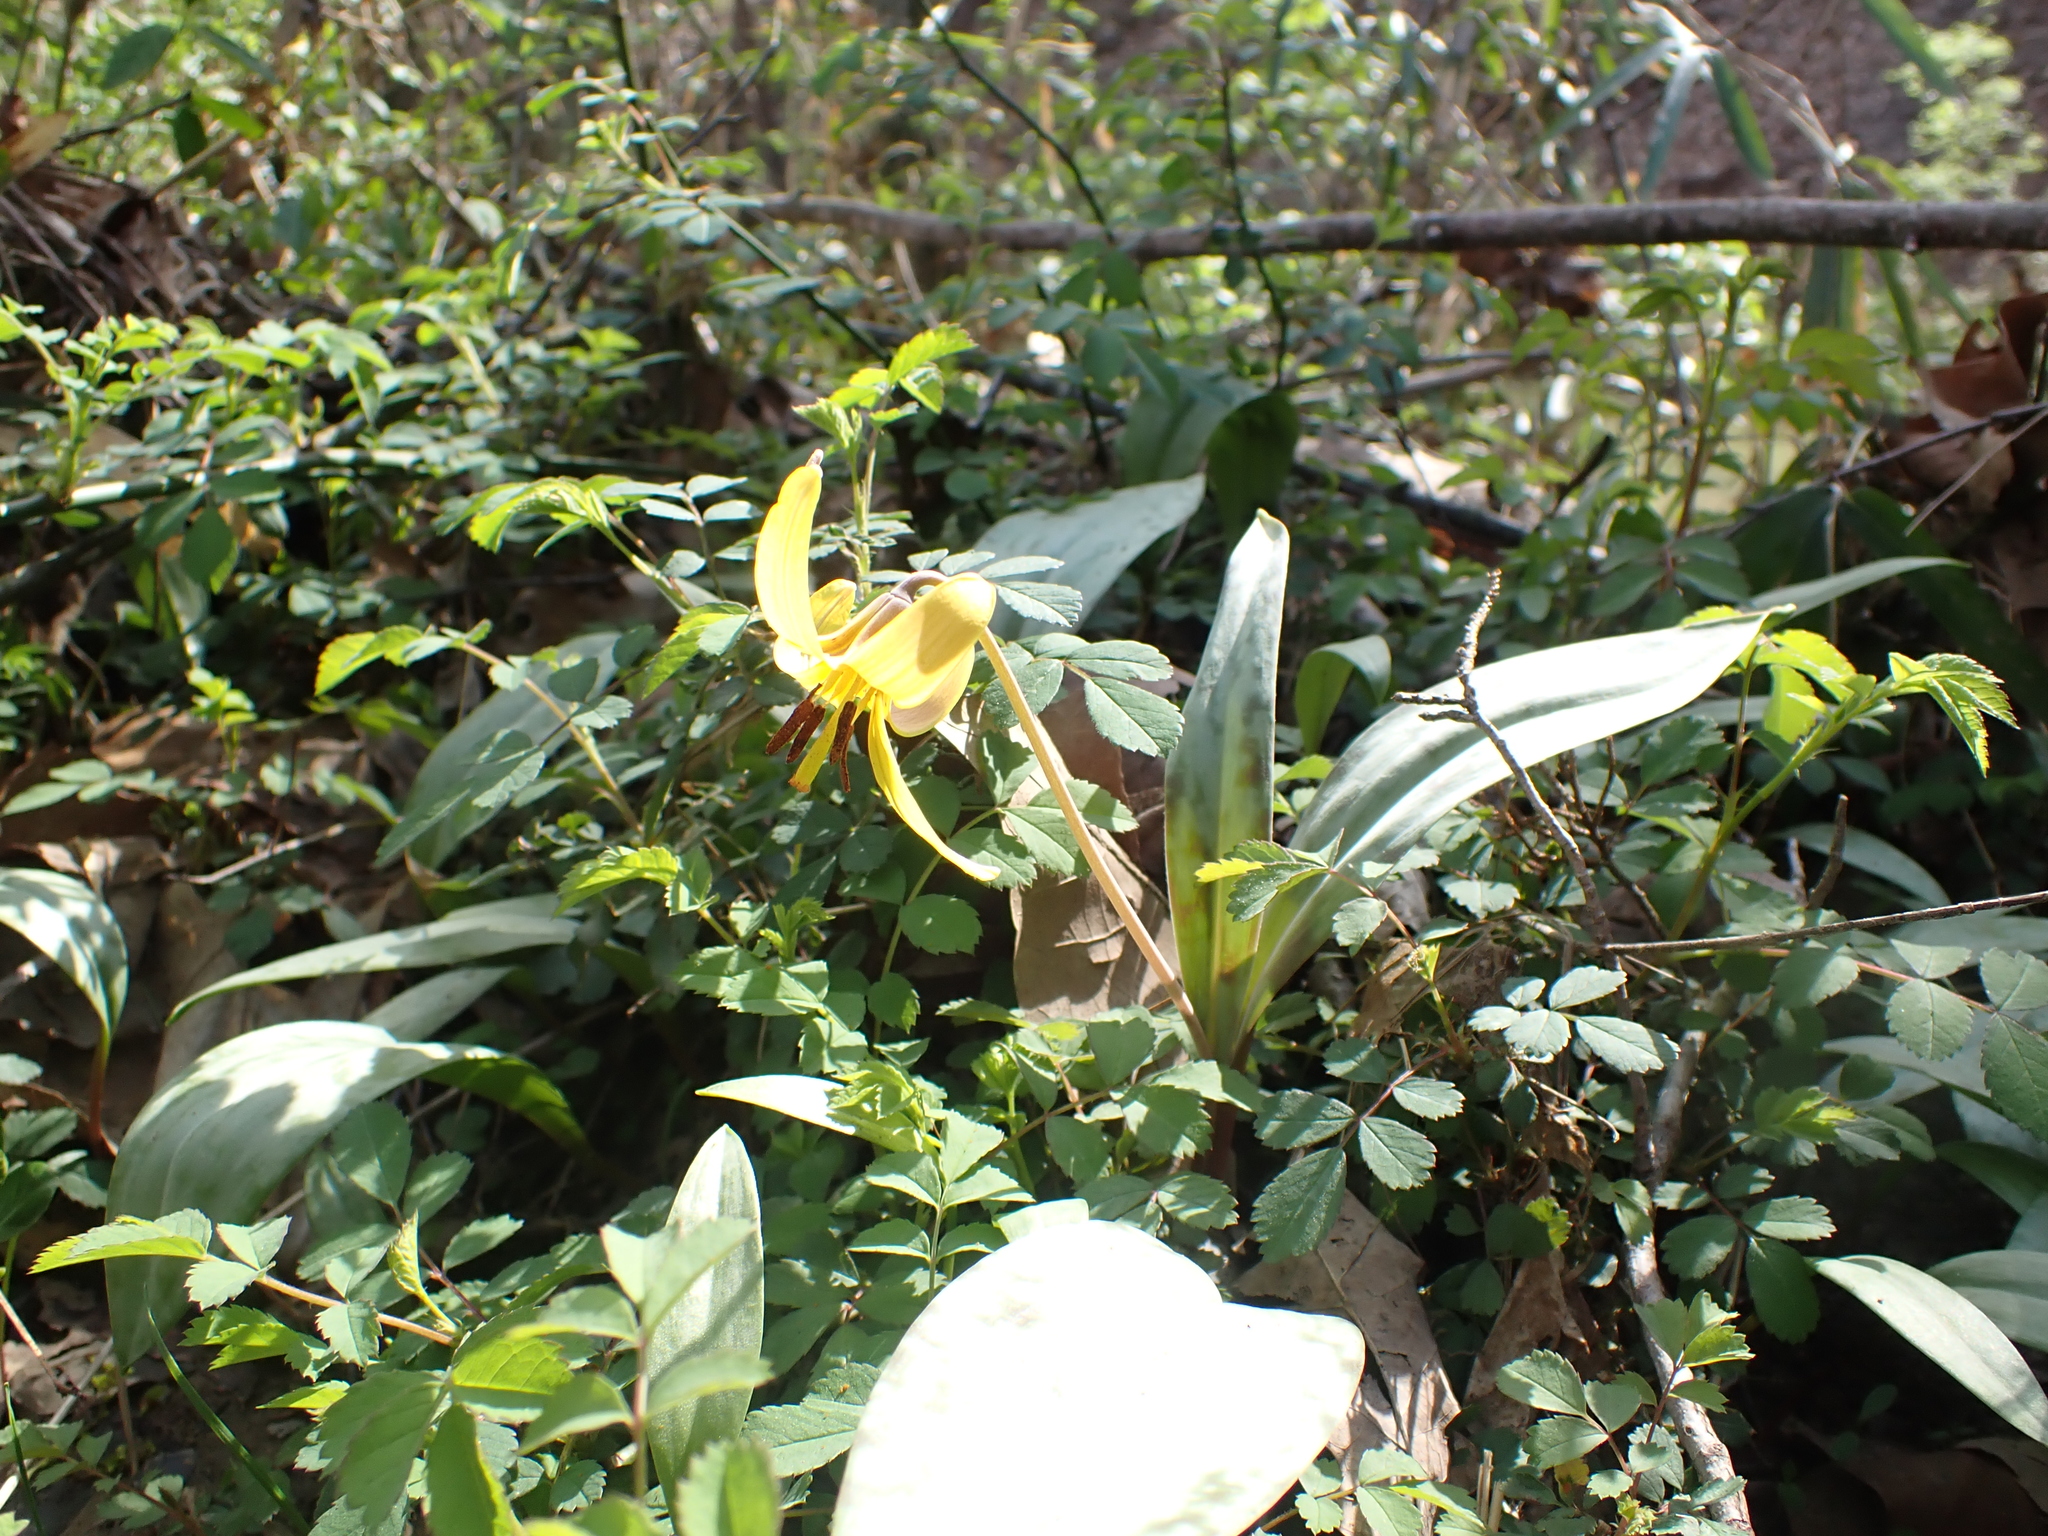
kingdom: Plantae
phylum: Tracheophyta
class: Liliopsida
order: Liliales
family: Liliaceae
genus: Erythronium
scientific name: Erythronium americanum
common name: Yellow adder's-tongue
